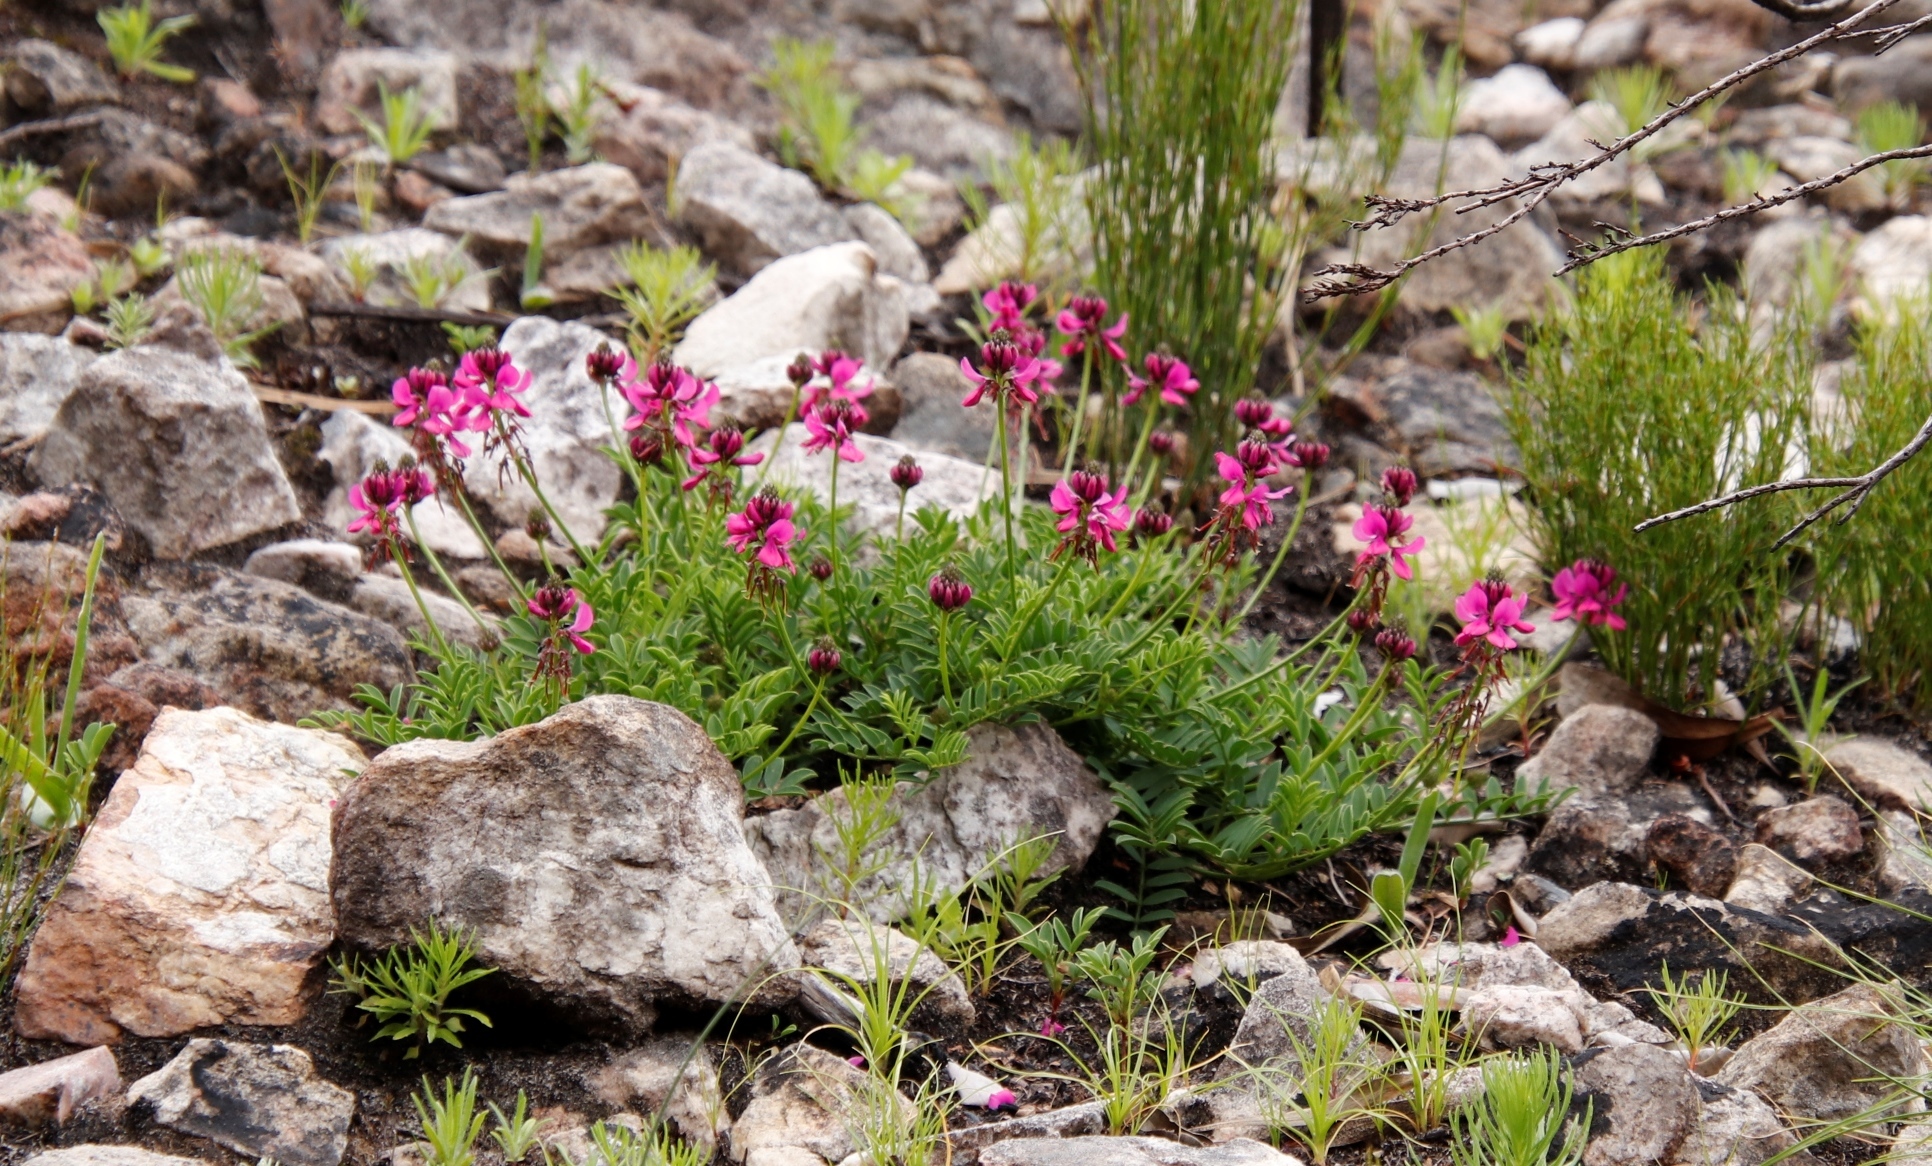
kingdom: Plantae
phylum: Tracheophyta
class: Magnoliopsida
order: Fabales
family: Fabaceae
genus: Indigofera
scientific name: Indigofera capillaris
